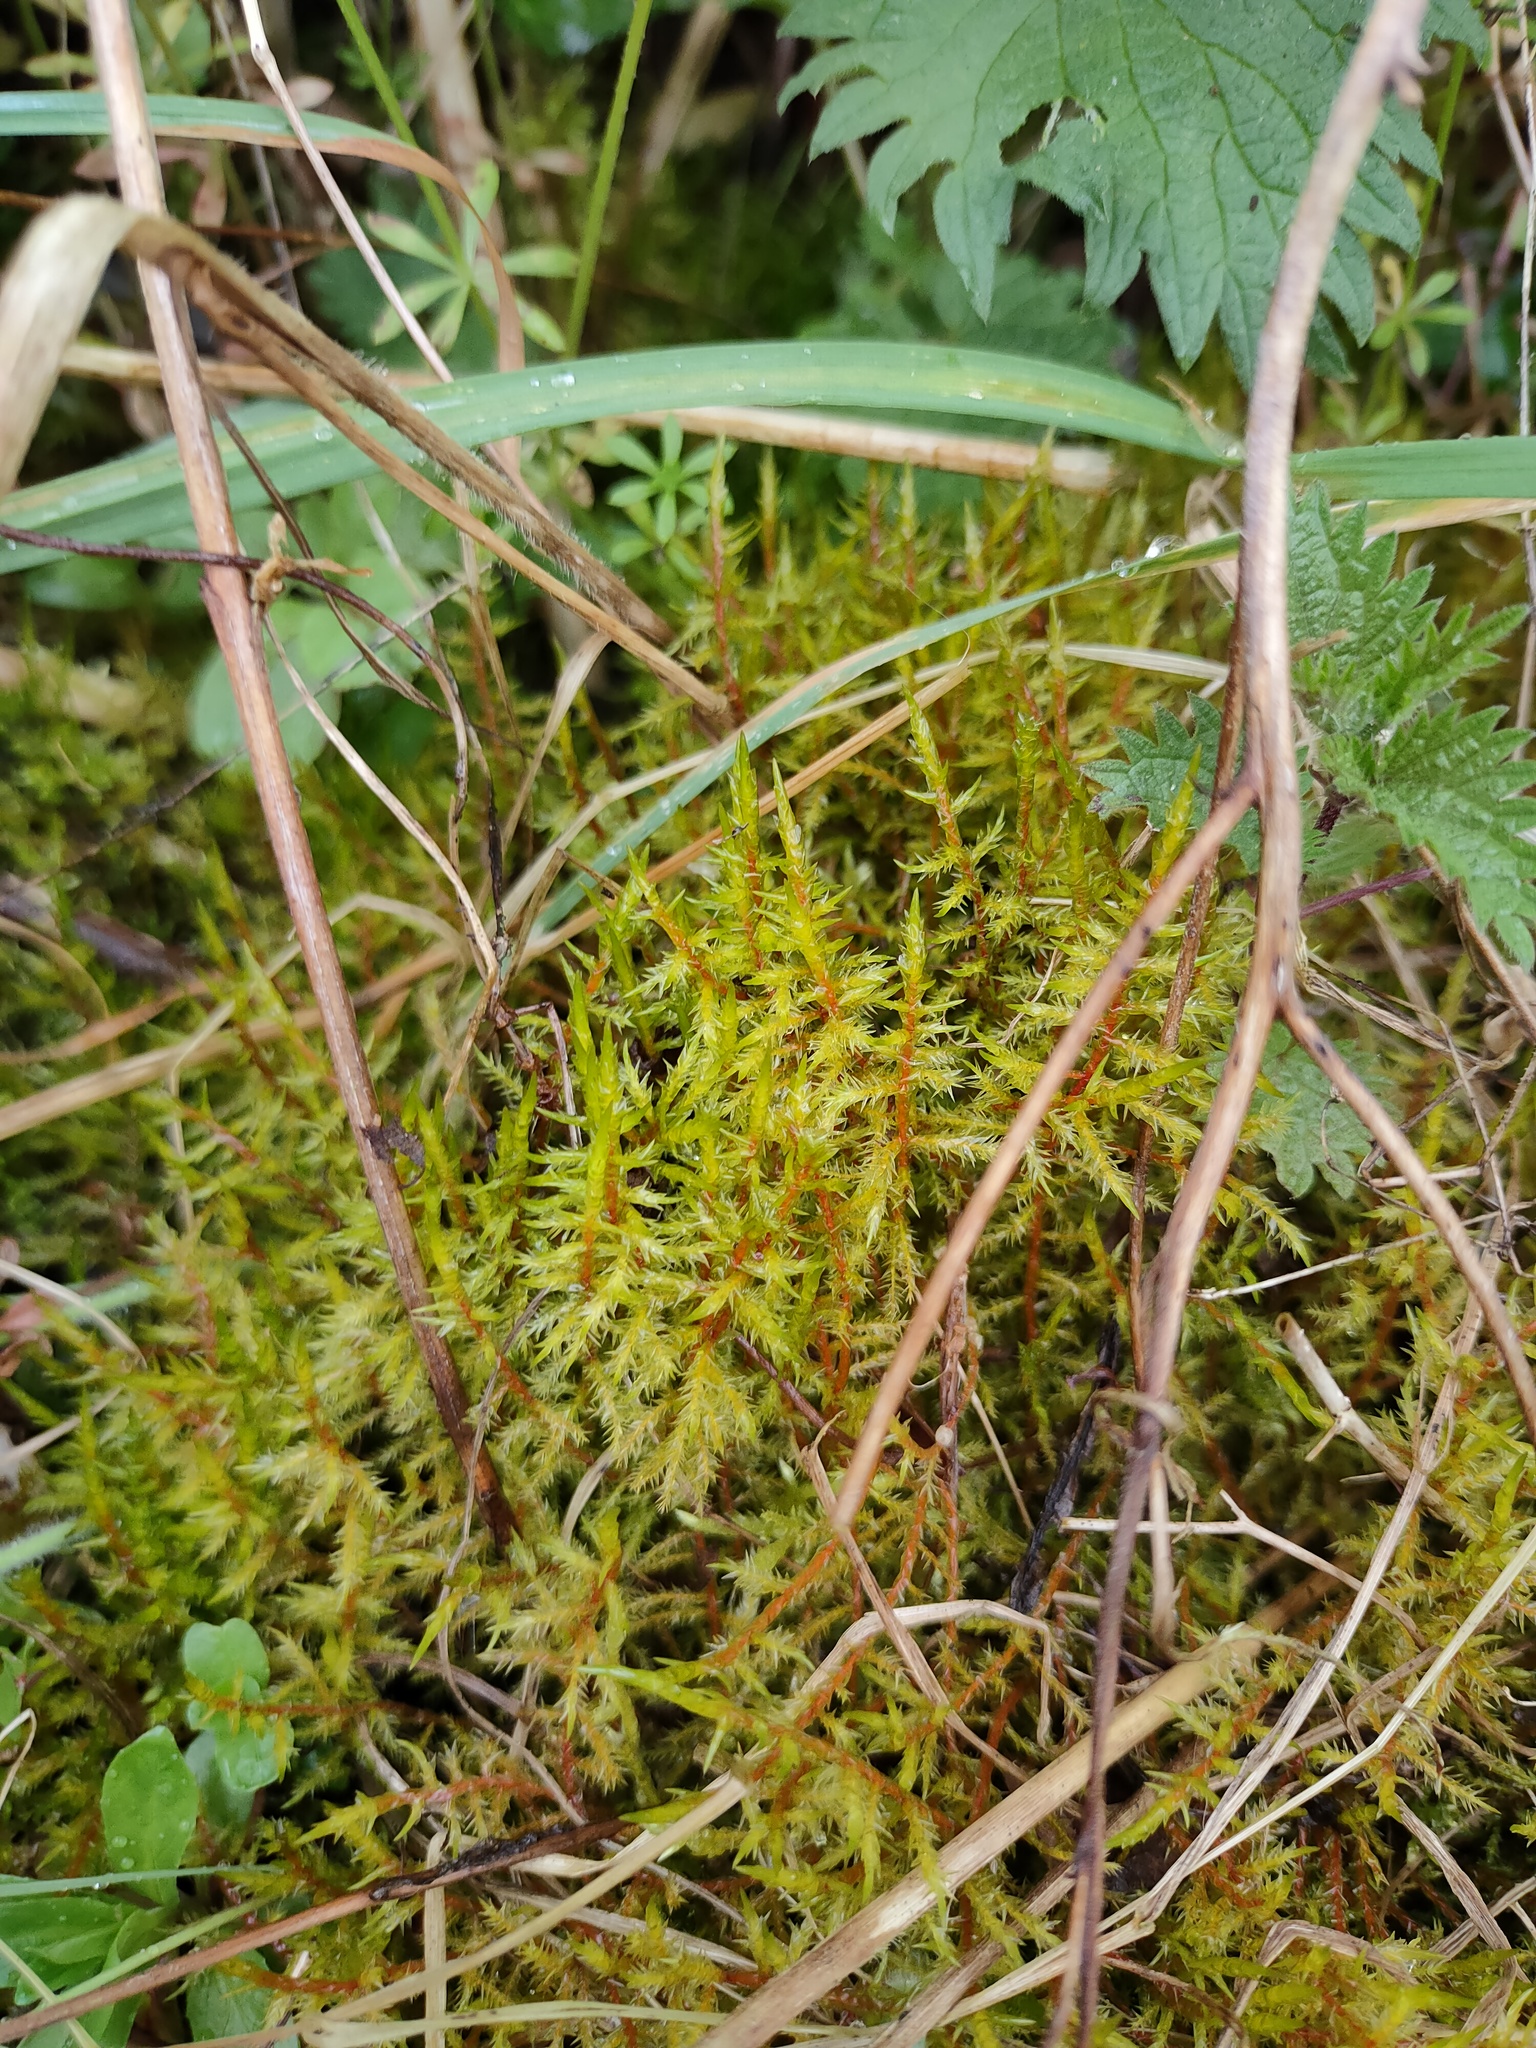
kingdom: Plantae
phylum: Bryophyta
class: Bryopsida
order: Hypnales
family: Pylaisiaceae
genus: Calliergonella
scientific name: Calliergonella cuspidata
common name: Common large wetland moss
